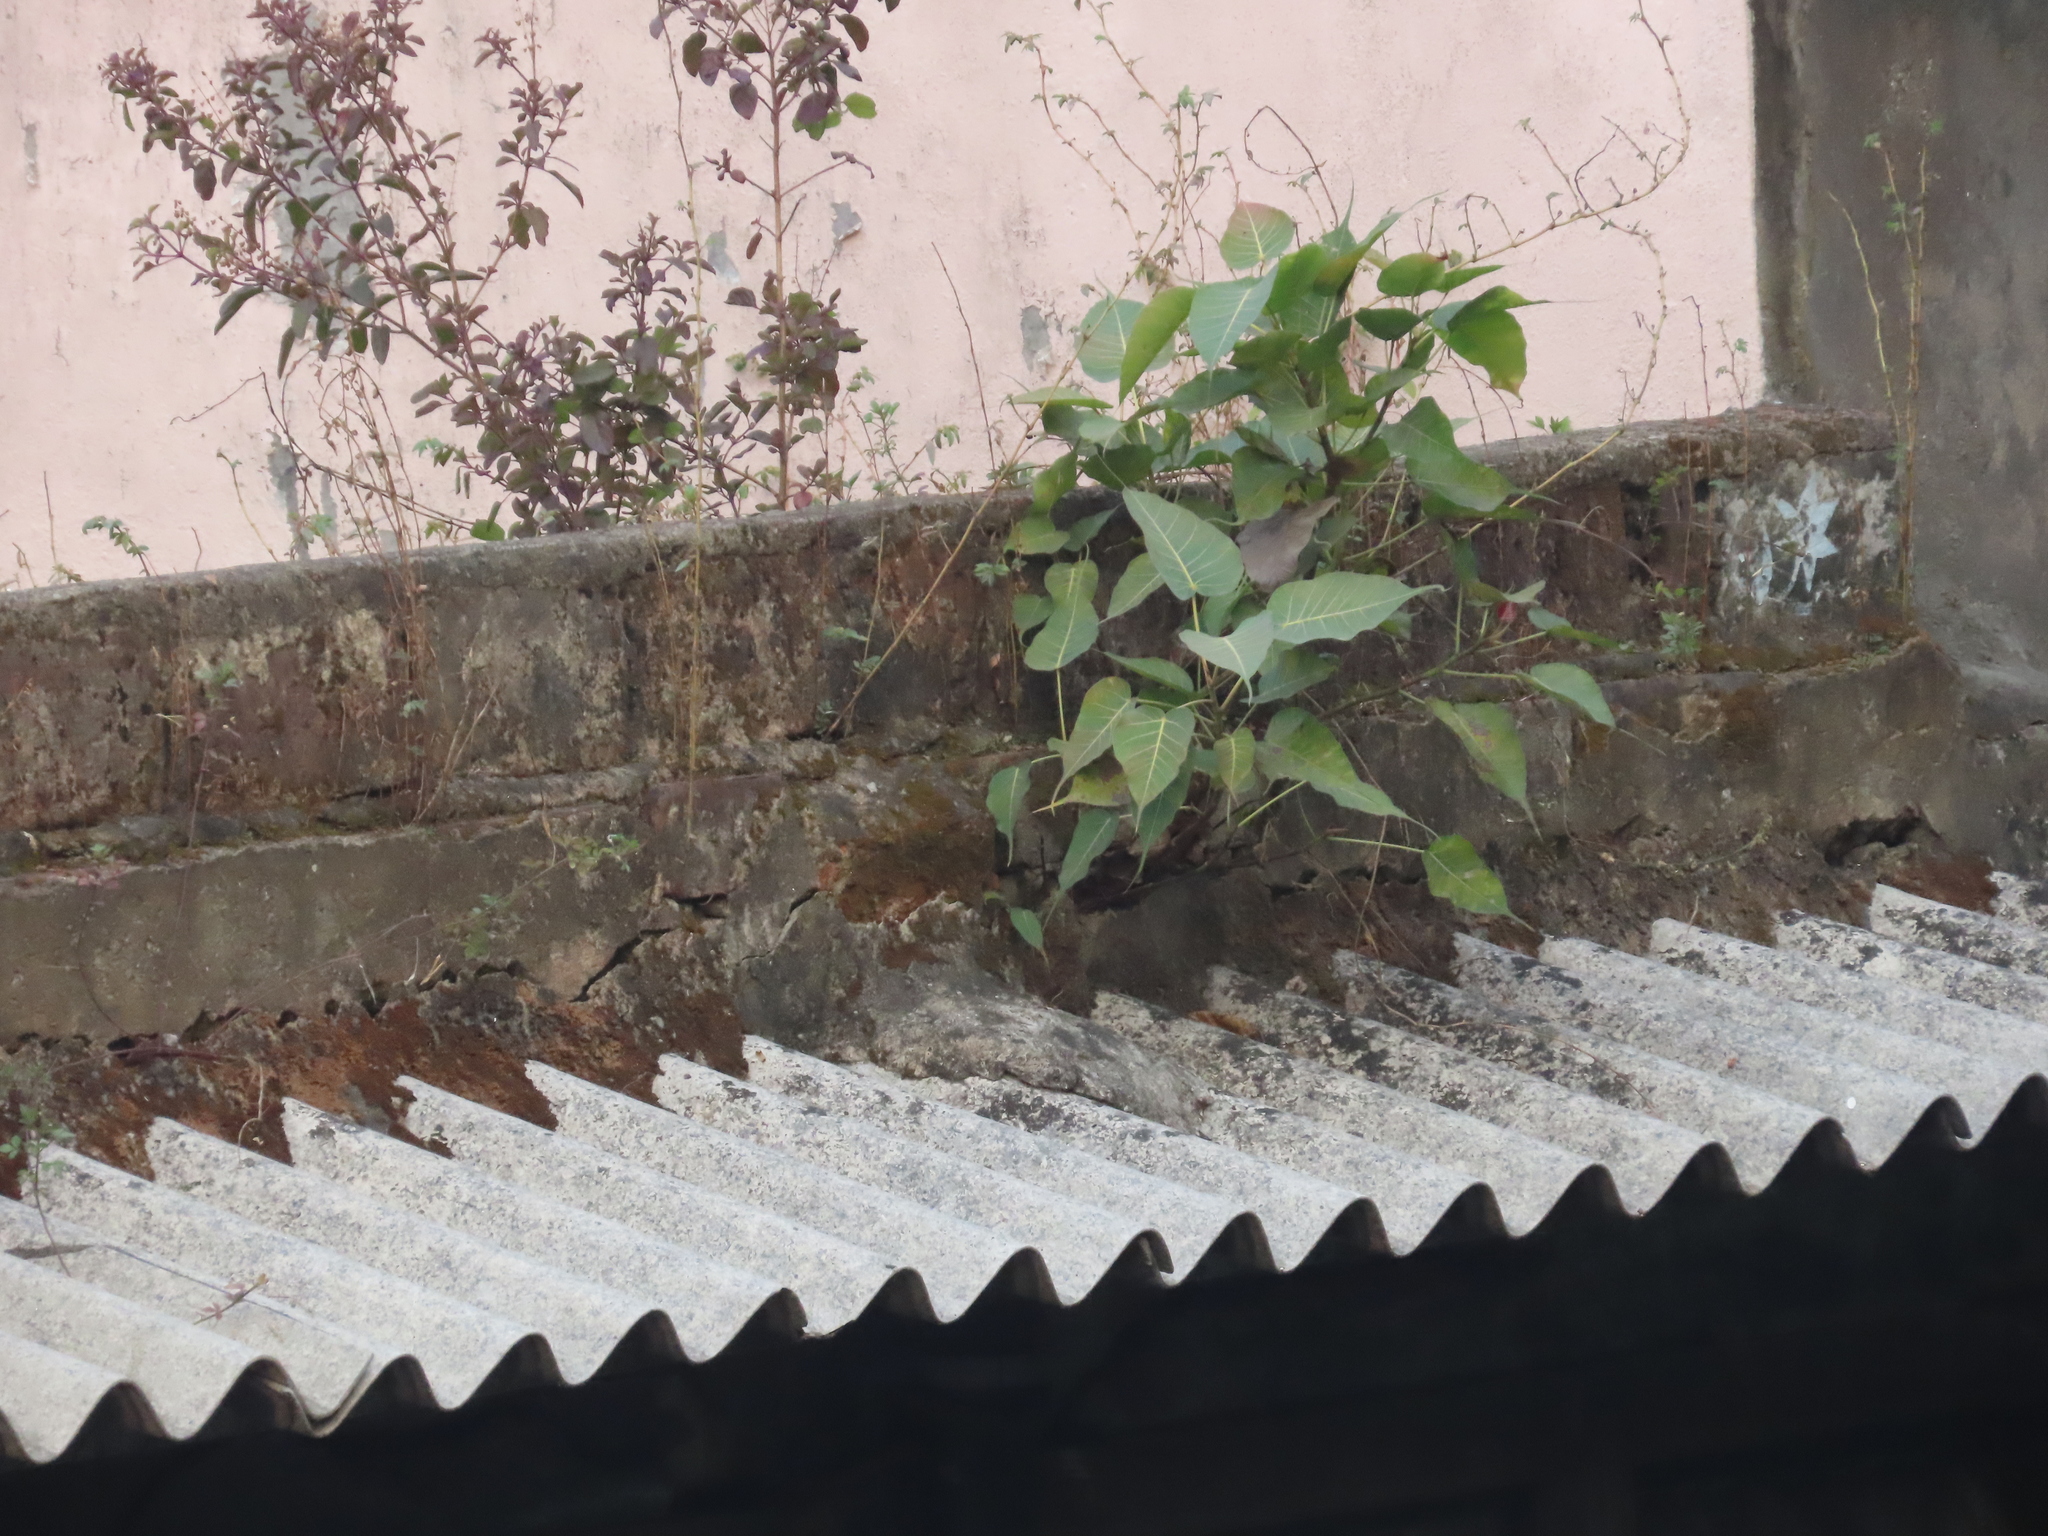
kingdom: Plantae
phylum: Tracheophyta
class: Magnoliopsida
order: Rosales
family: Moraceae
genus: Ficus
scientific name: Ficus religiosa
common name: Bodhi tree
